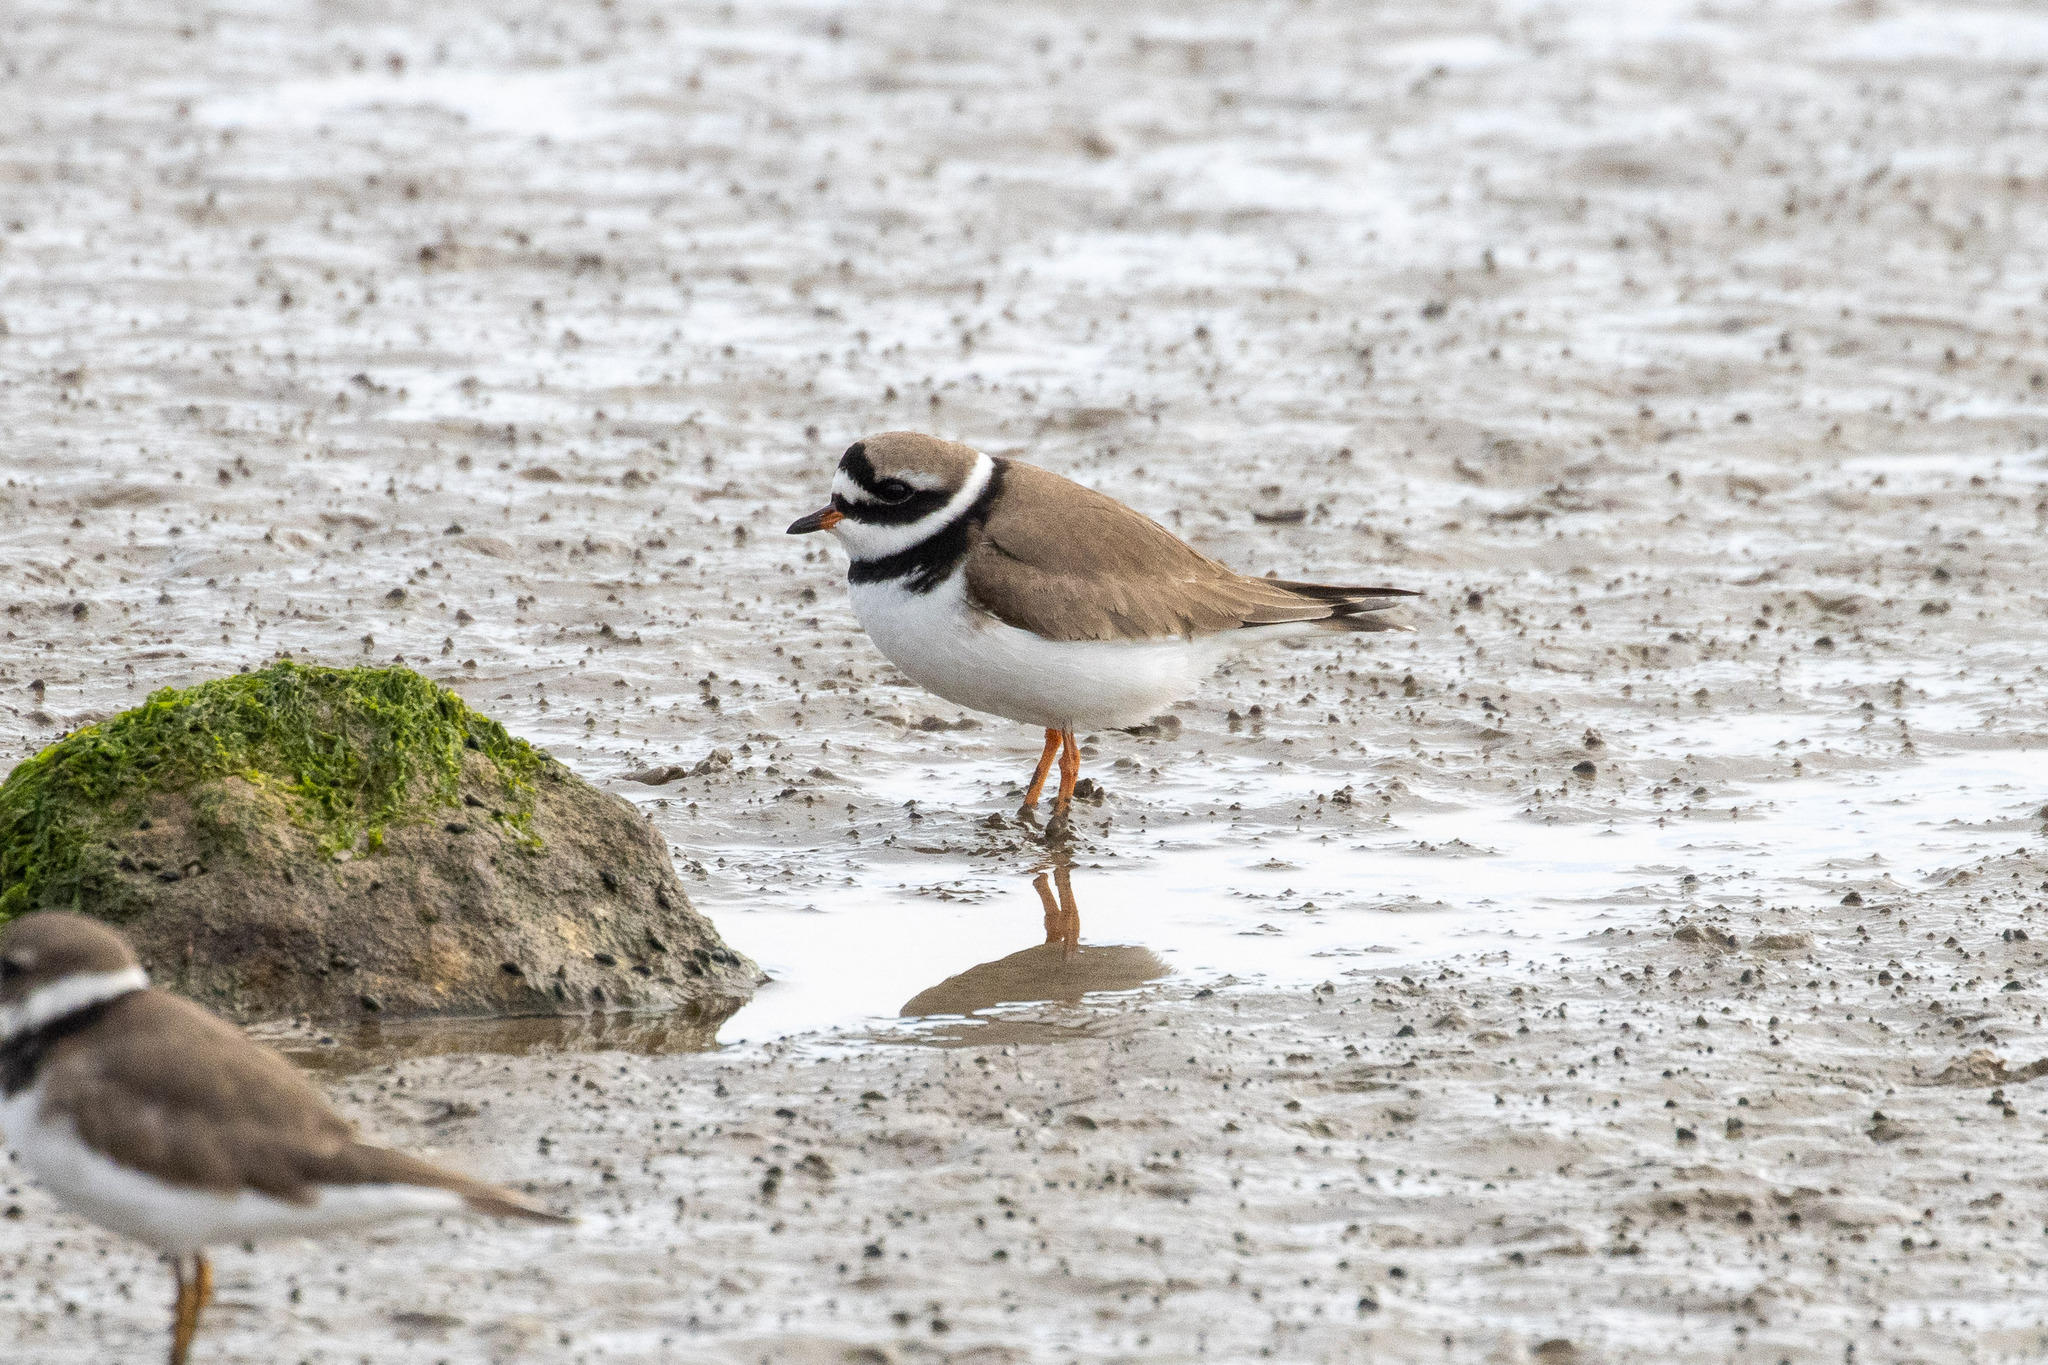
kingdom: Animalia
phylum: Chordata
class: Aves
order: Charadriiformes
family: Charadriidae
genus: Charadrius
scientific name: Charadrius hiaticula
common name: Common ringed plover
